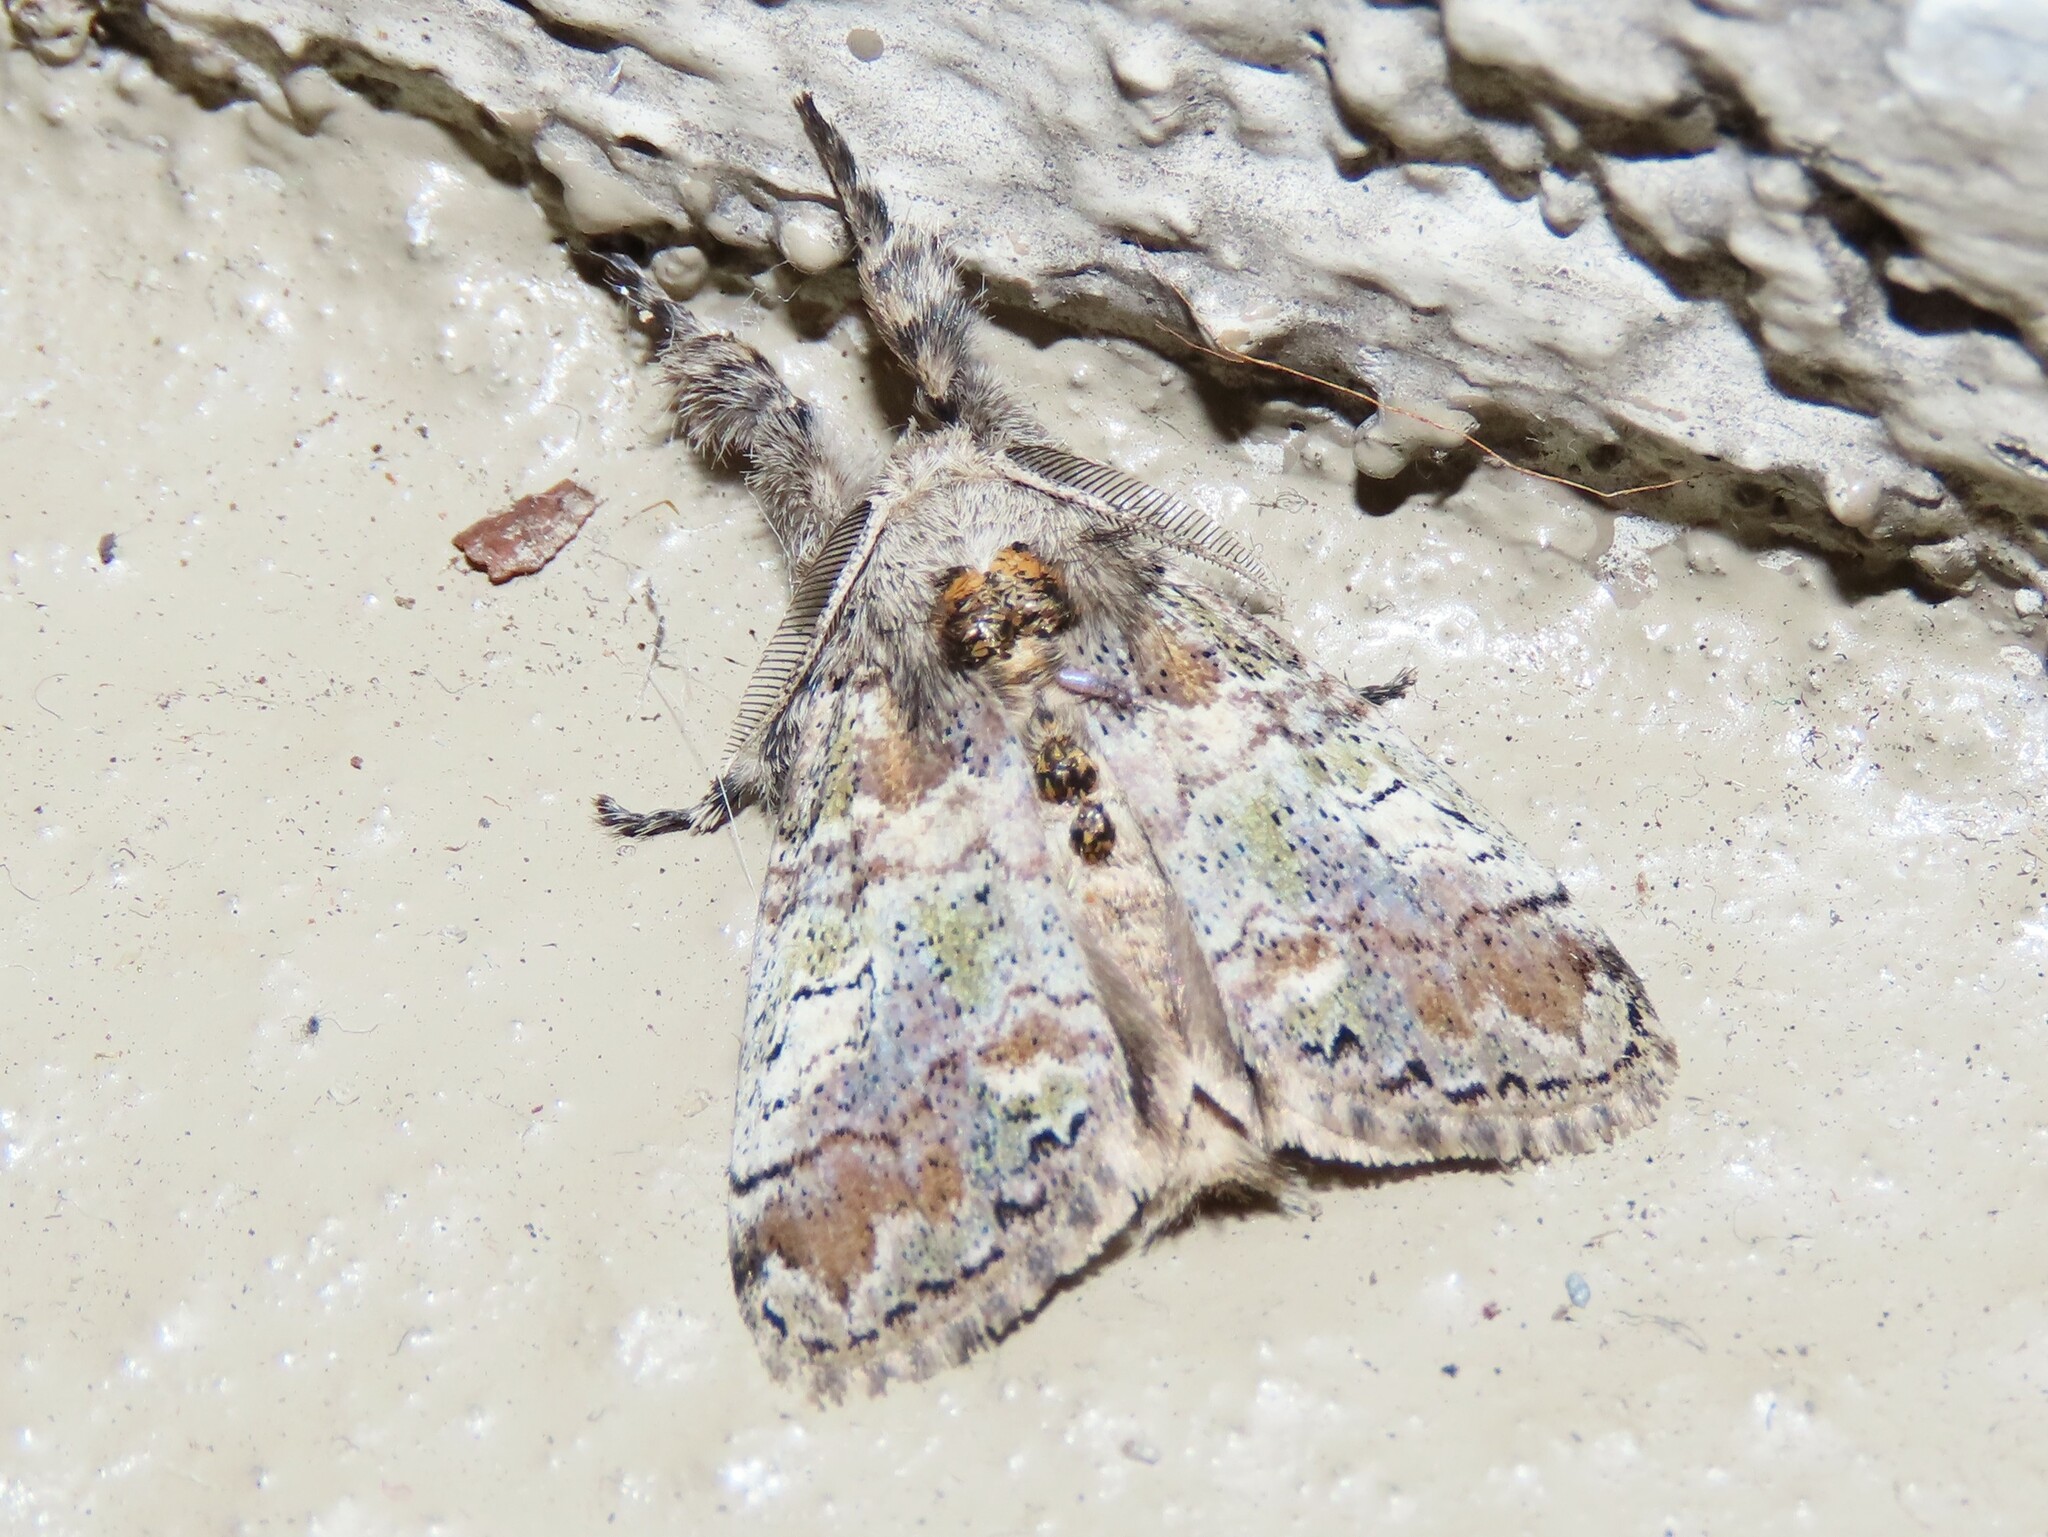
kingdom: Animalia
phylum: Arthropoda
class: Insecta
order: Lepidoptera
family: Erebidae
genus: Dasychira
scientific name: Dasychira meridionalis
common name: Southern tussock moth
